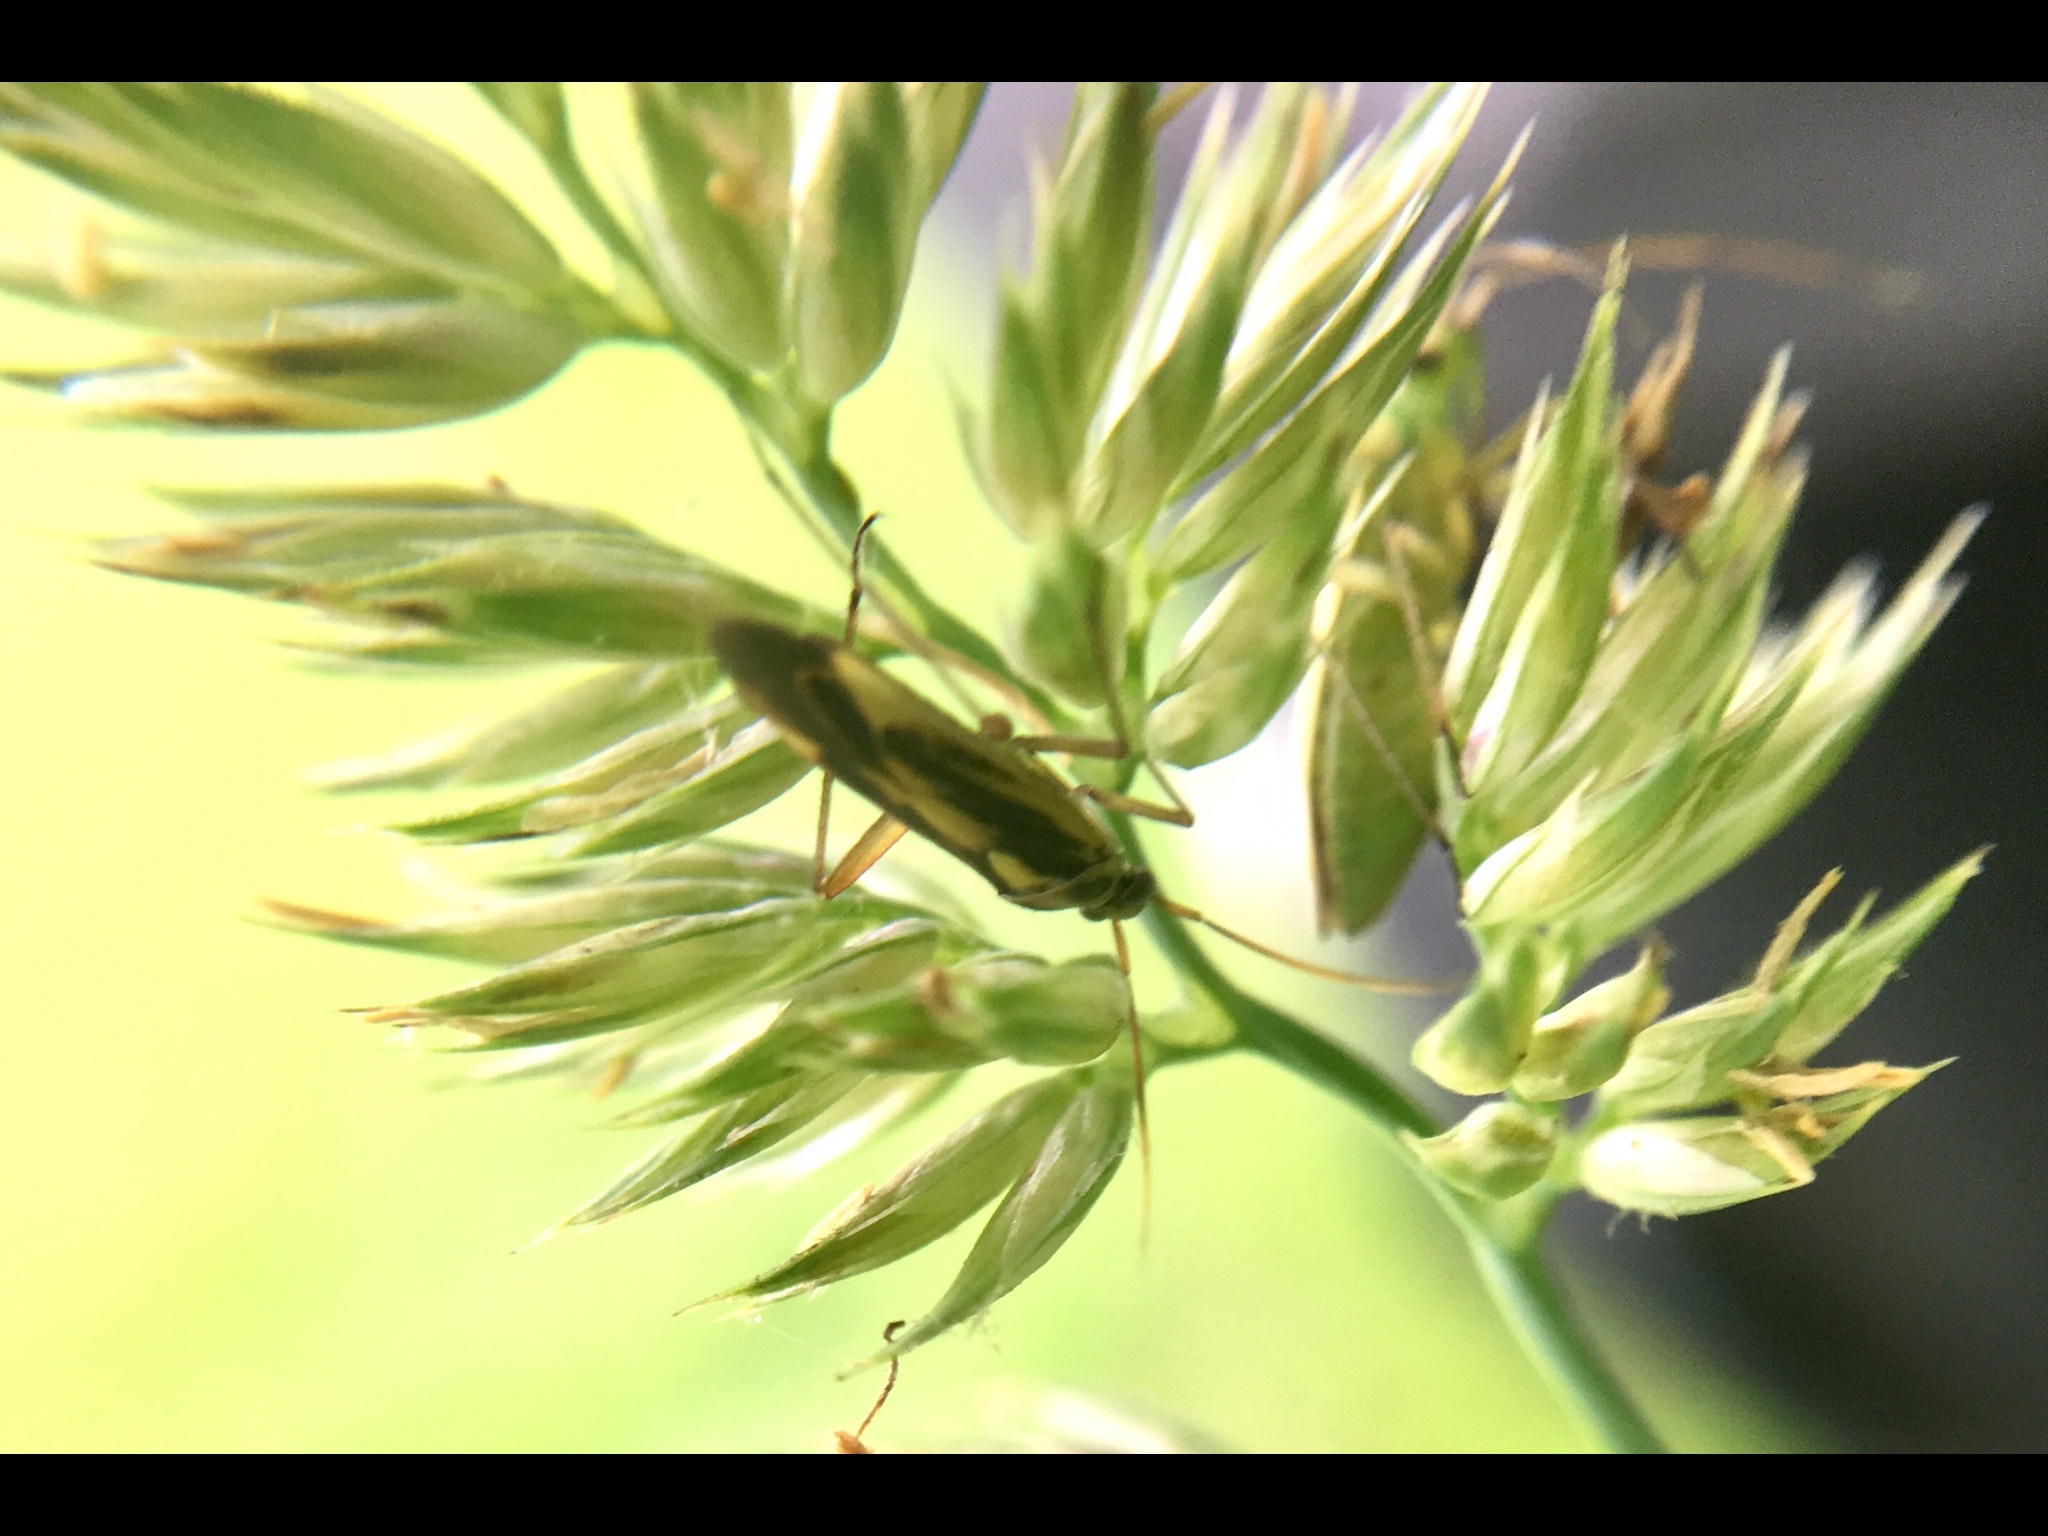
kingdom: Animalia
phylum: Arthropoda
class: Insecta
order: Hemiptera
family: Miridae
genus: Stenotus
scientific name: Stenotus binotatus
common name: Plant bug
